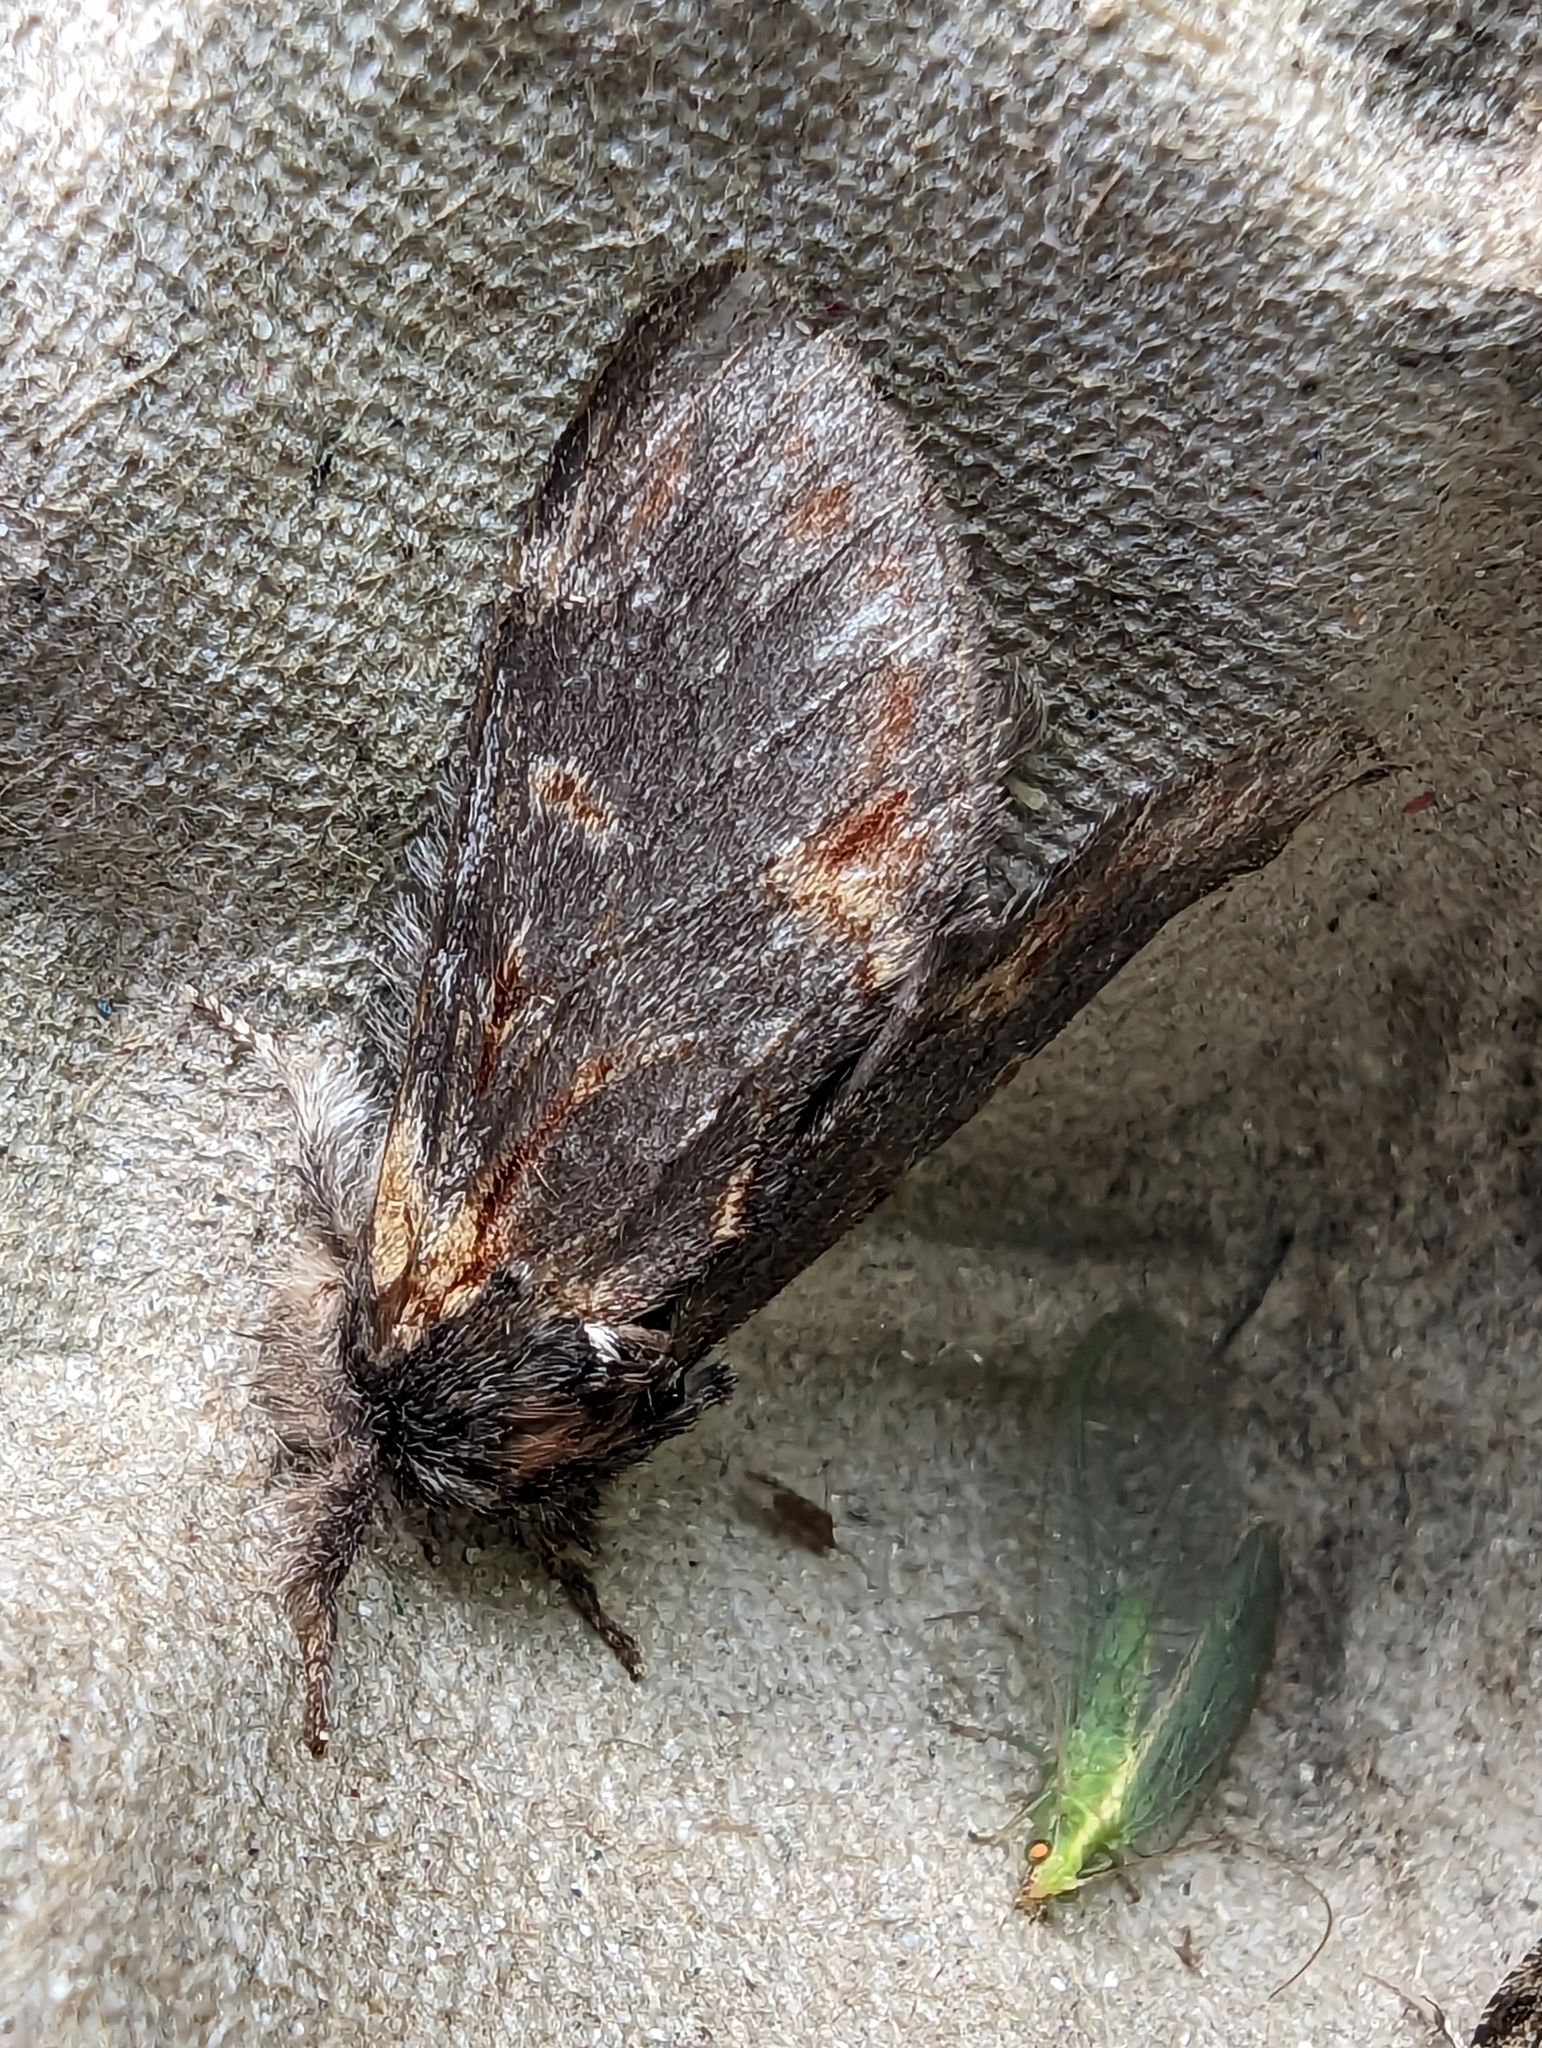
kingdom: Animalia
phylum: Arthropoda
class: Insecta
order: Lepidoptera
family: Notodontidae
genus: Notodonta
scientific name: Notodonta dromedarius
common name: Iron prominent
